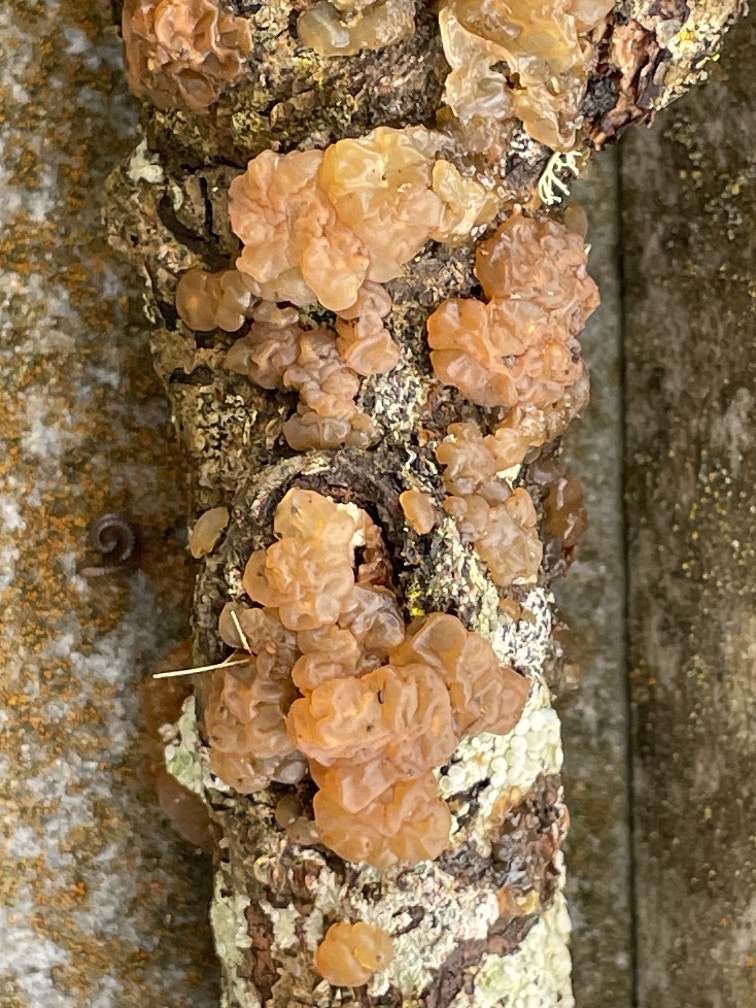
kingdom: Fungi
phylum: Basidiomycota
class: Agaricomycetes
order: Auriculariales
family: Hyaloriaceae
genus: Myxarium
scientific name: Myxarium nucleatum
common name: Crystal brain fungus
